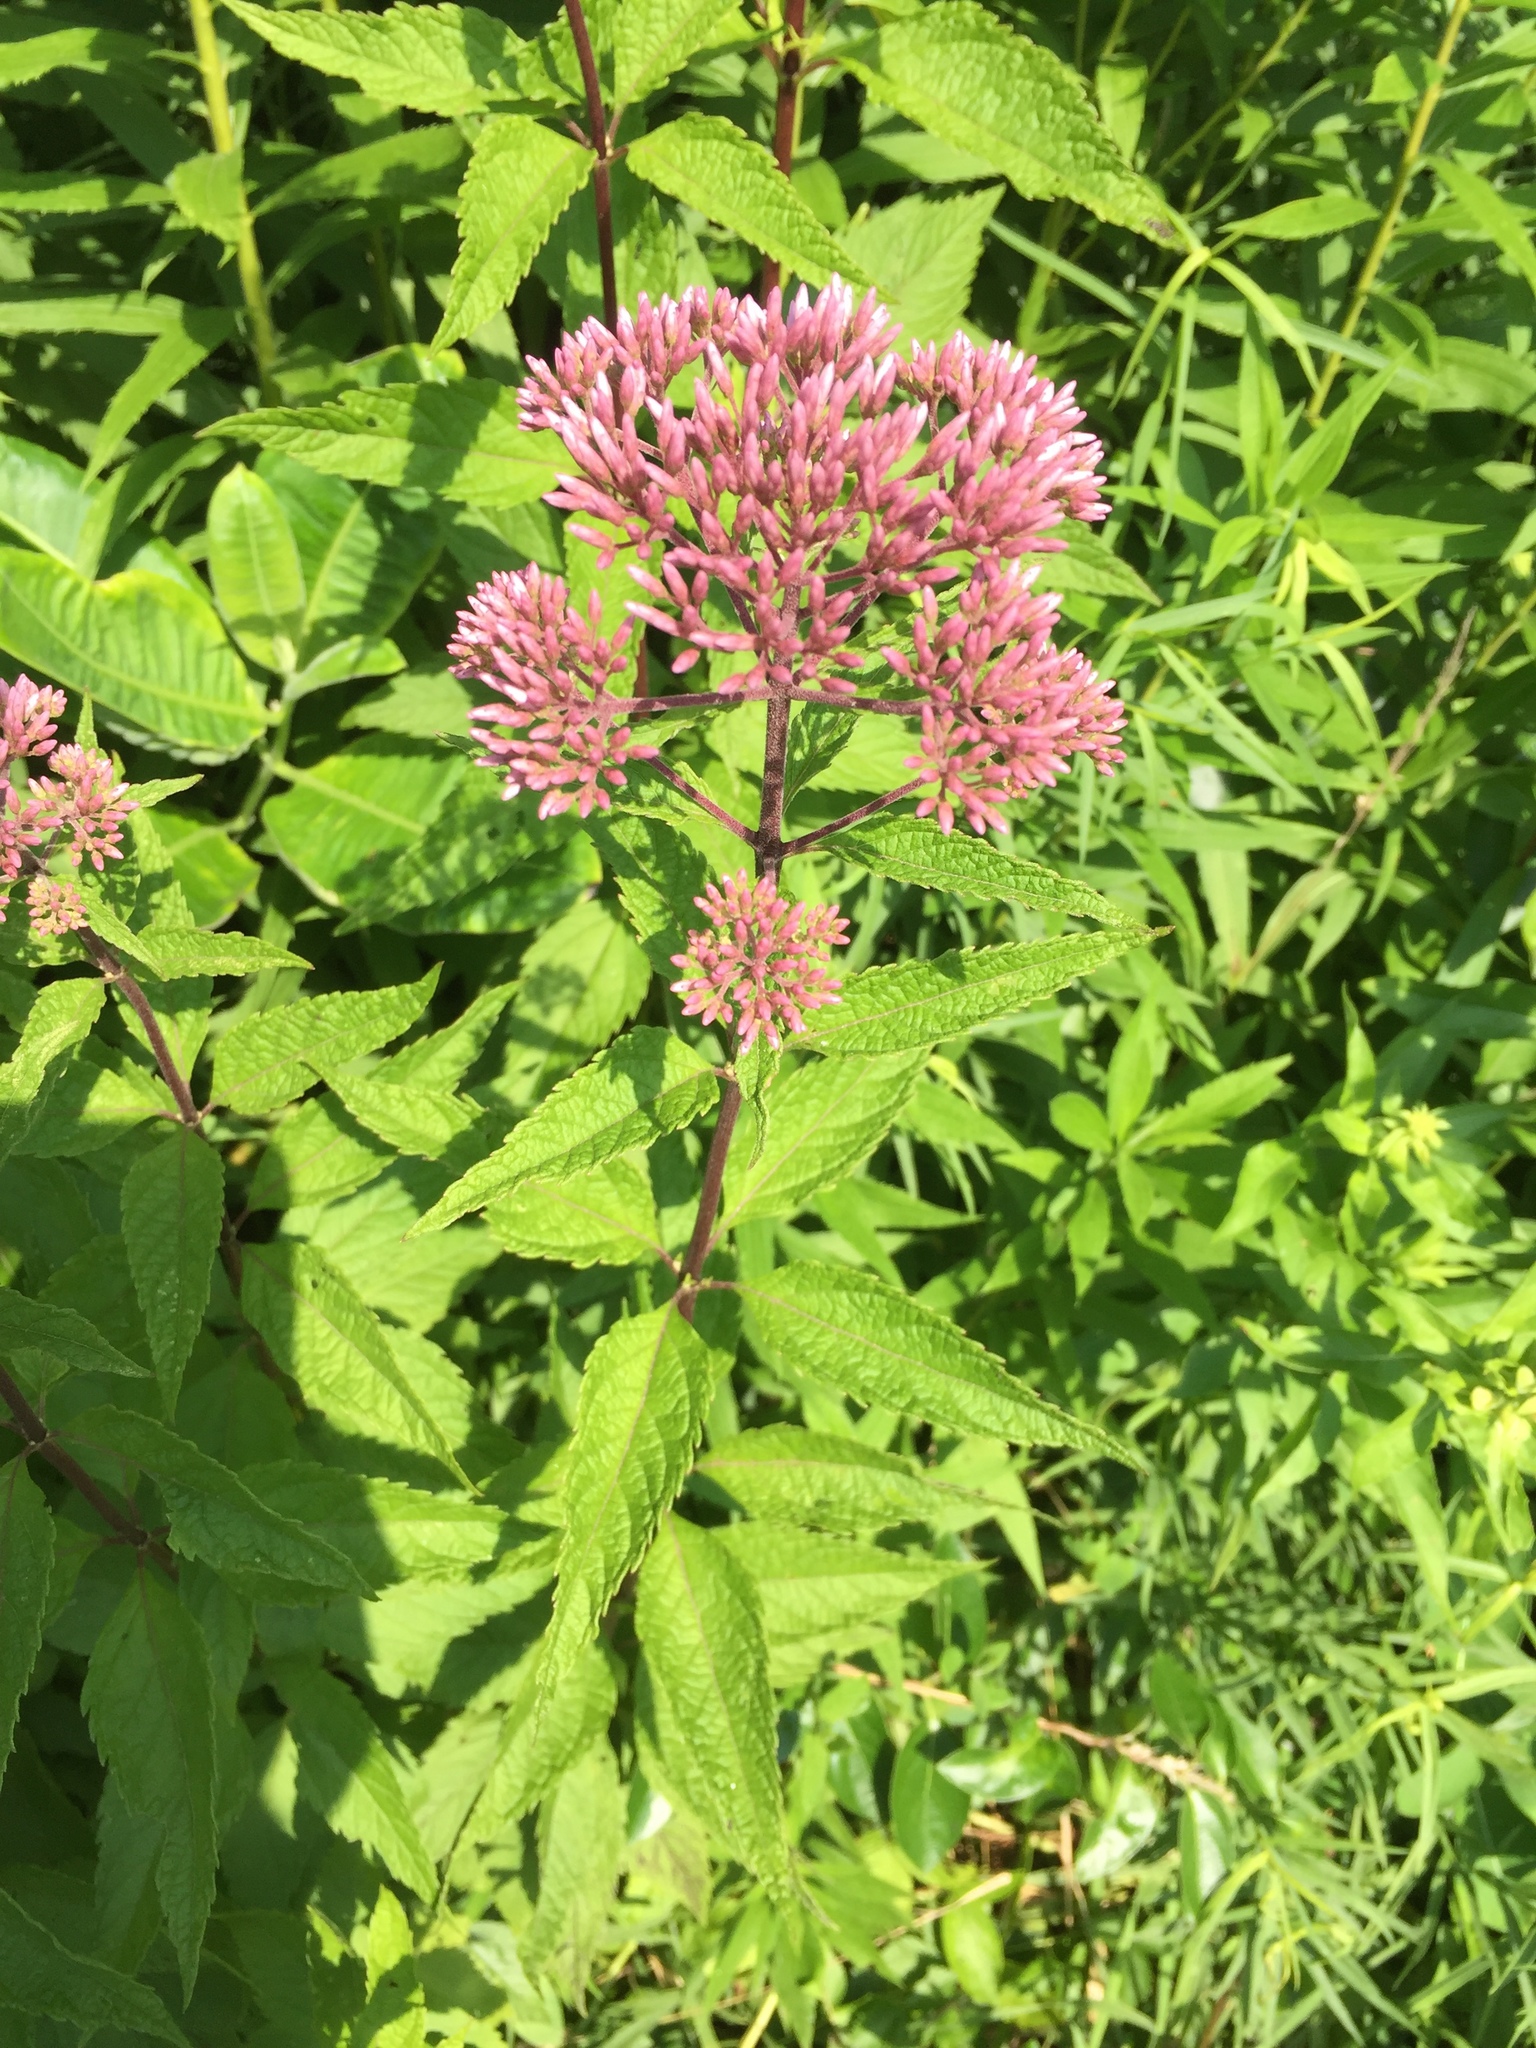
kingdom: Plantae
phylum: Tracheophyta
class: Magnoliopsida
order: Asterales
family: Asteraceae
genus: Eutrochium
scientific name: Eutrochium dubium
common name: Coastal plain joe pye weed
